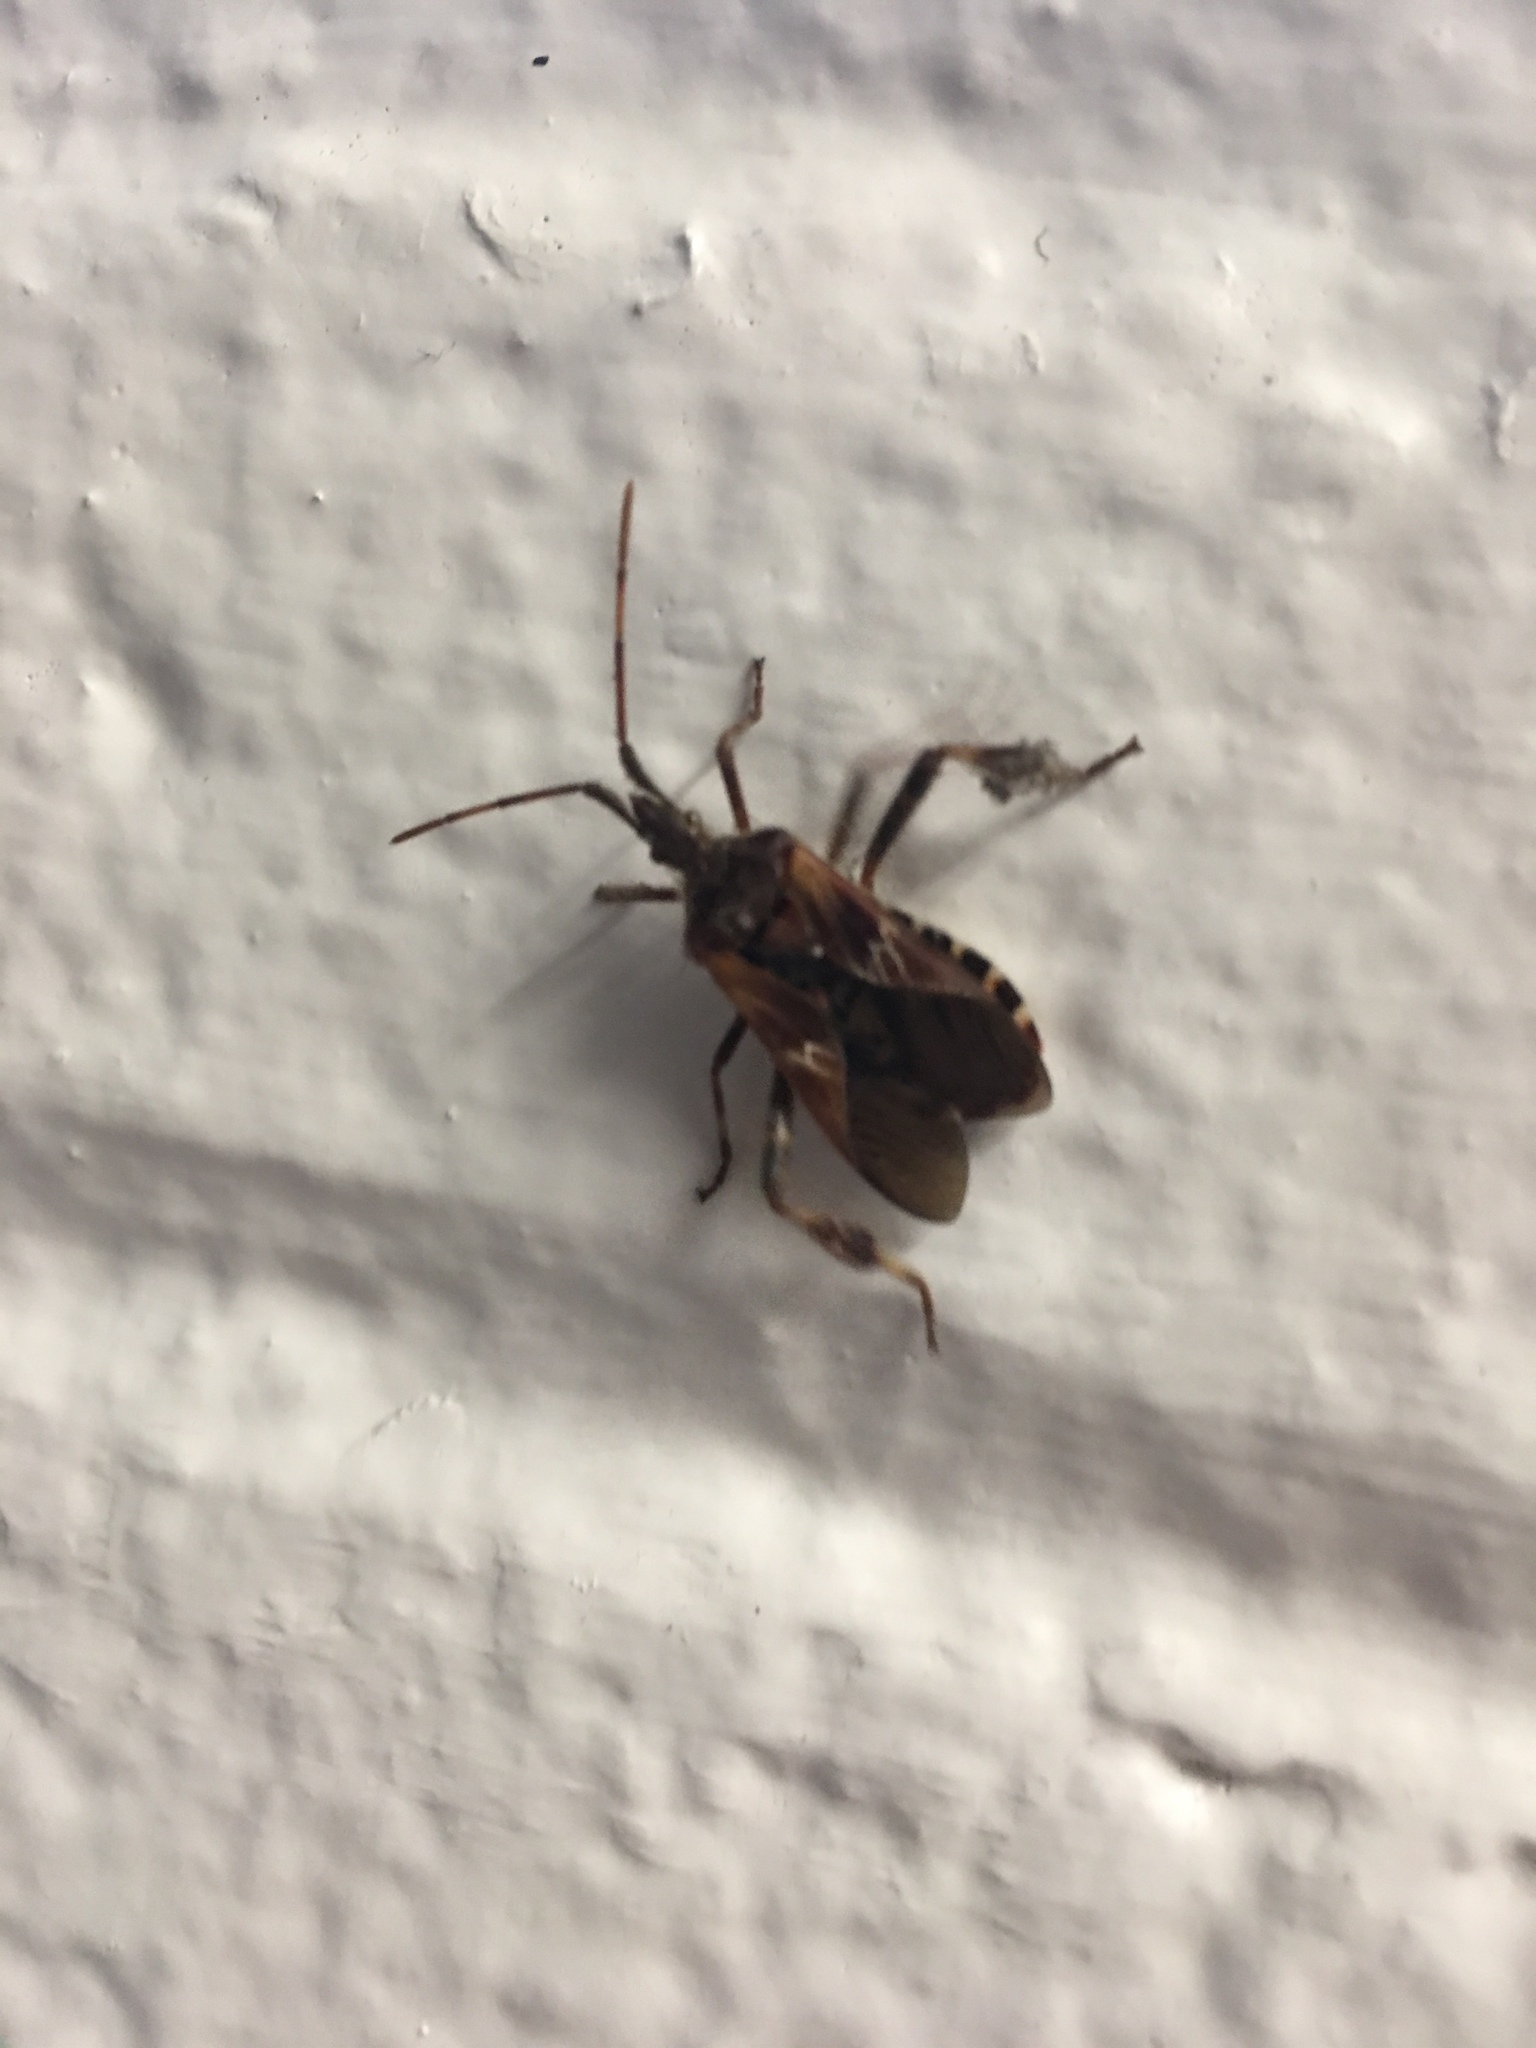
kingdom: Animalia
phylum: Arthropoda
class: Insecta
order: Hemiptera
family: Coreidae
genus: Leptoglossus
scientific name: Leptoglossus occidentalis
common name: Western conifer-seed bug
